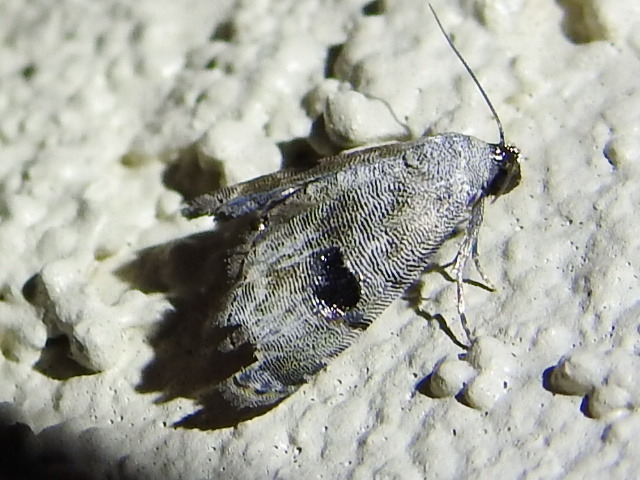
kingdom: Animalia
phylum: Arthropoda
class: Insecta
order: Lepidoptera
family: Noctuidae
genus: Abablemma
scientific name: Abablemma duomaculata
